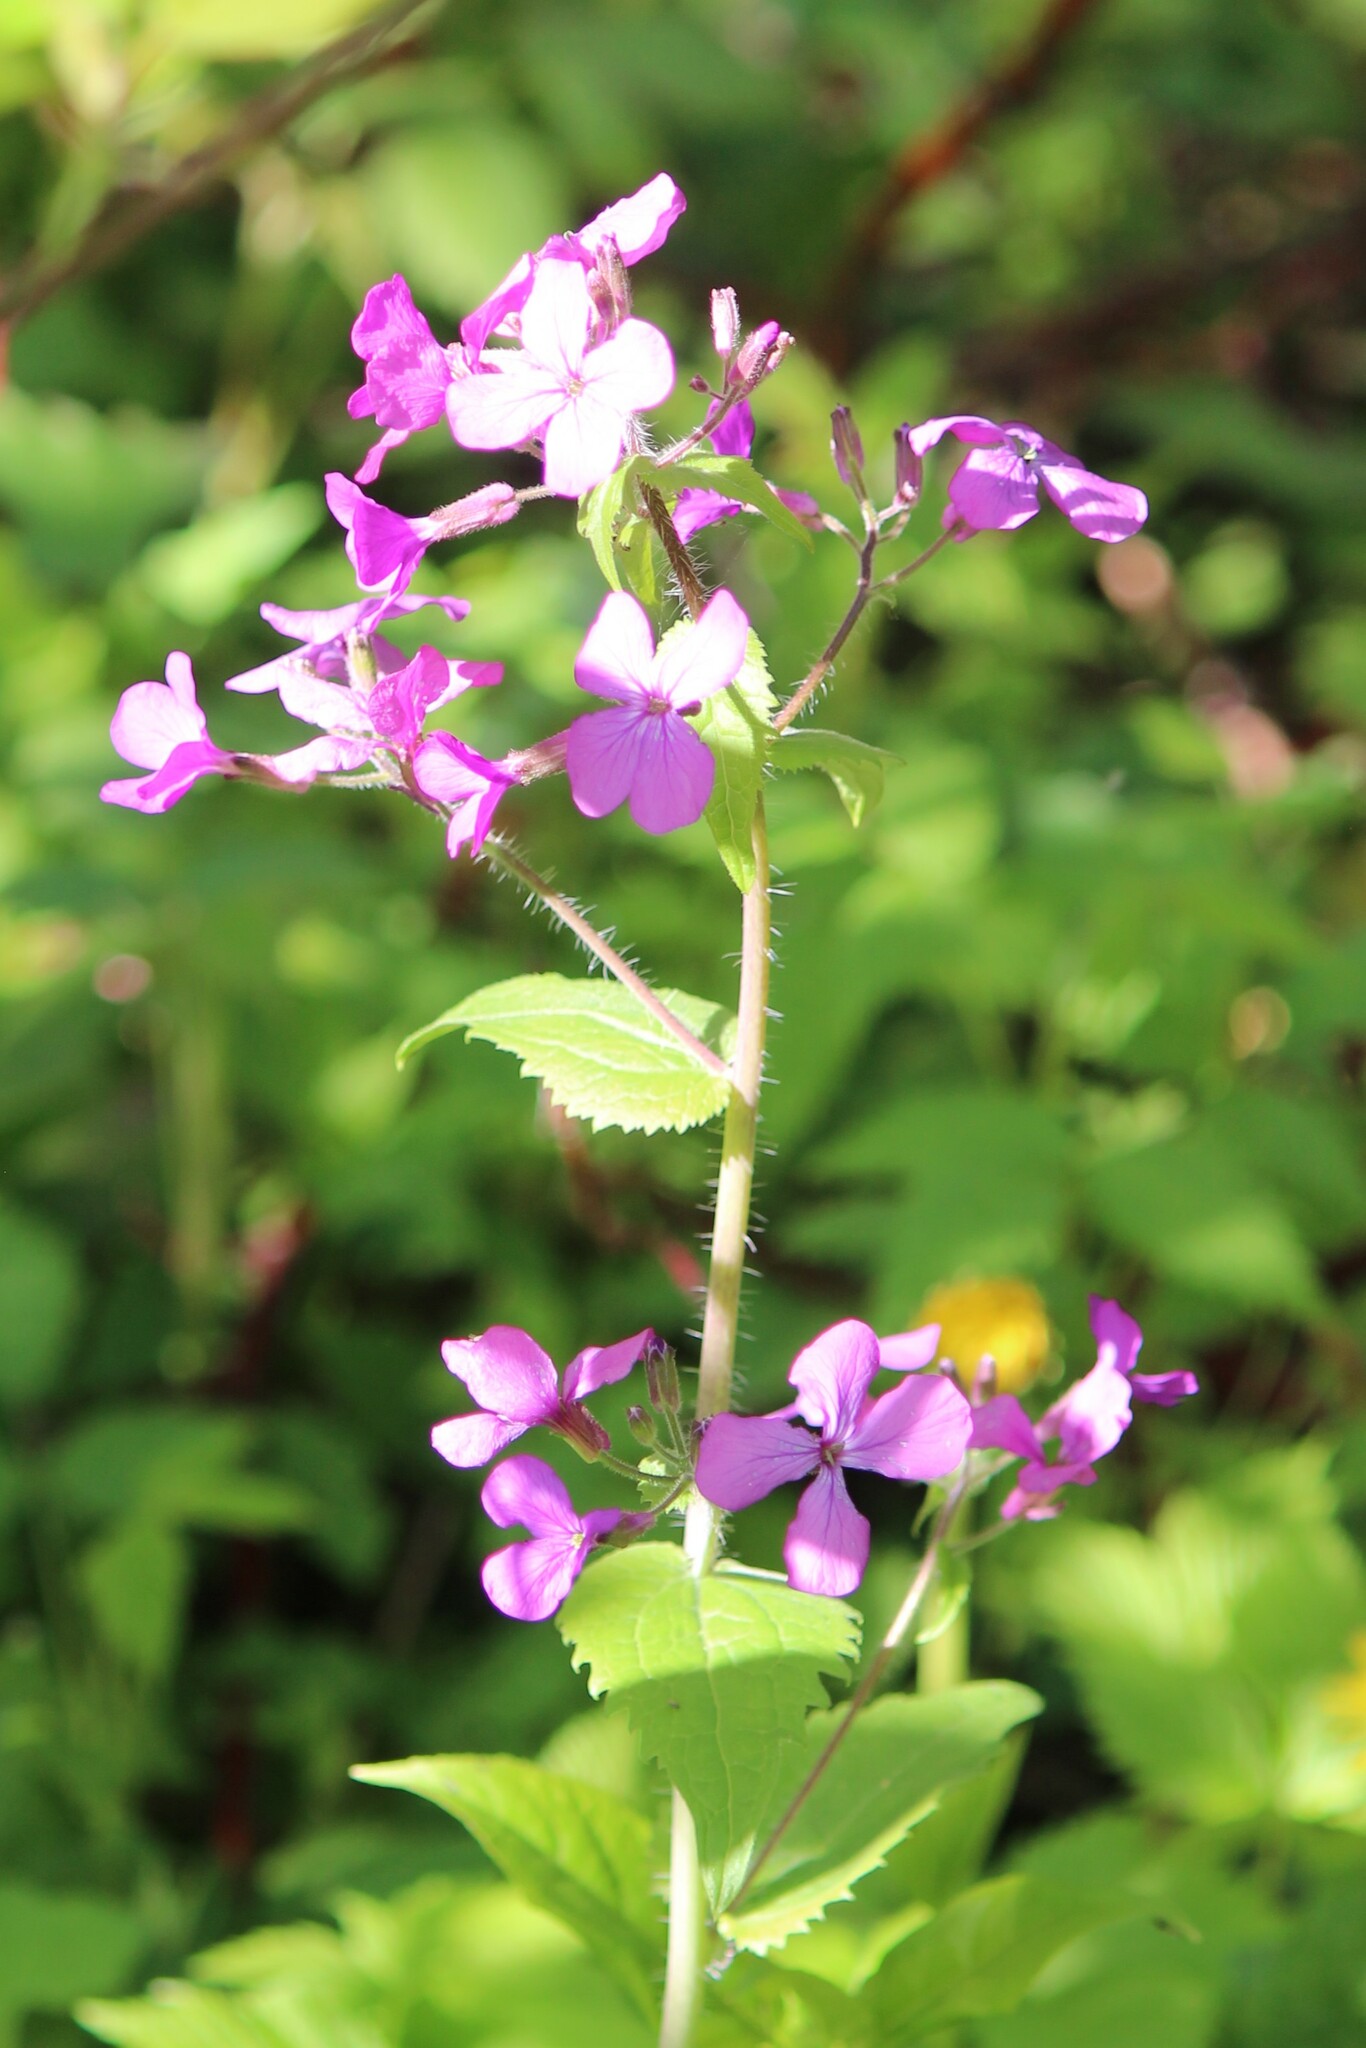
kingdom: Plantae
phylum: Tracheophyta
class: Magnoliopsida
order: Brassicales
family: Brassicaceae
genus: Lunaria
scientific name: Lunaria annua
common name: Honesty
